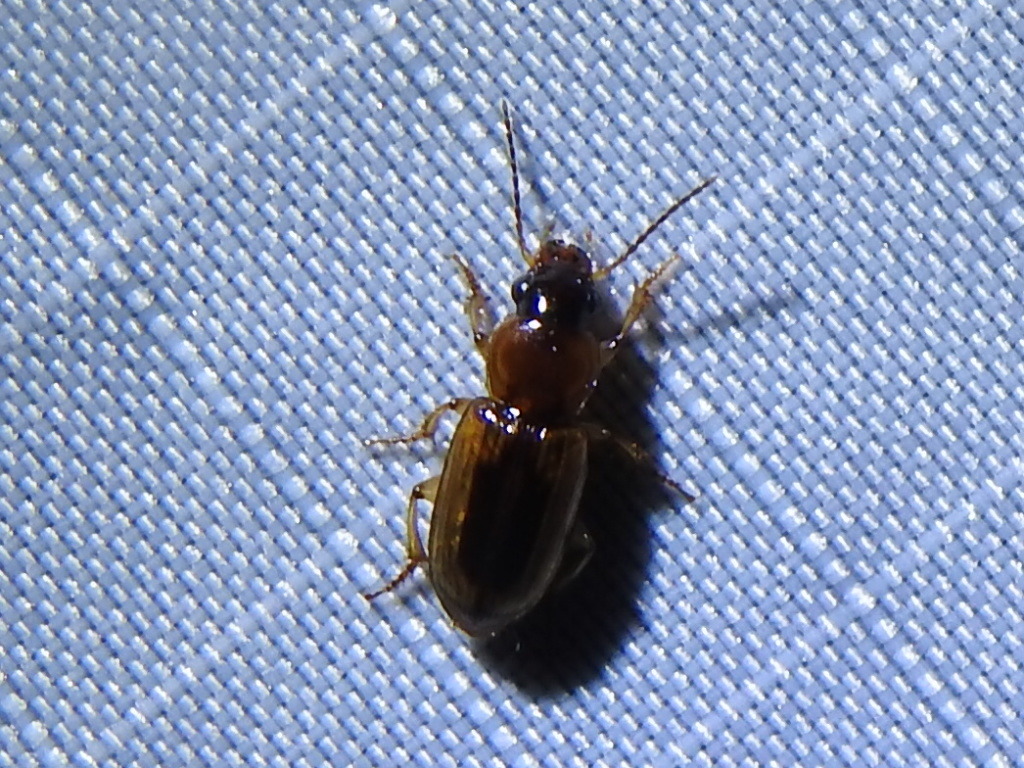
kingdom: Animalia
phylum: Arthropoda
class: Insecta
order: Coleoptera
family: Carabidae
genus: Stenolophus
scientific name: Stenolophus lecontei
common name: Leconte's seedcorn beetle
